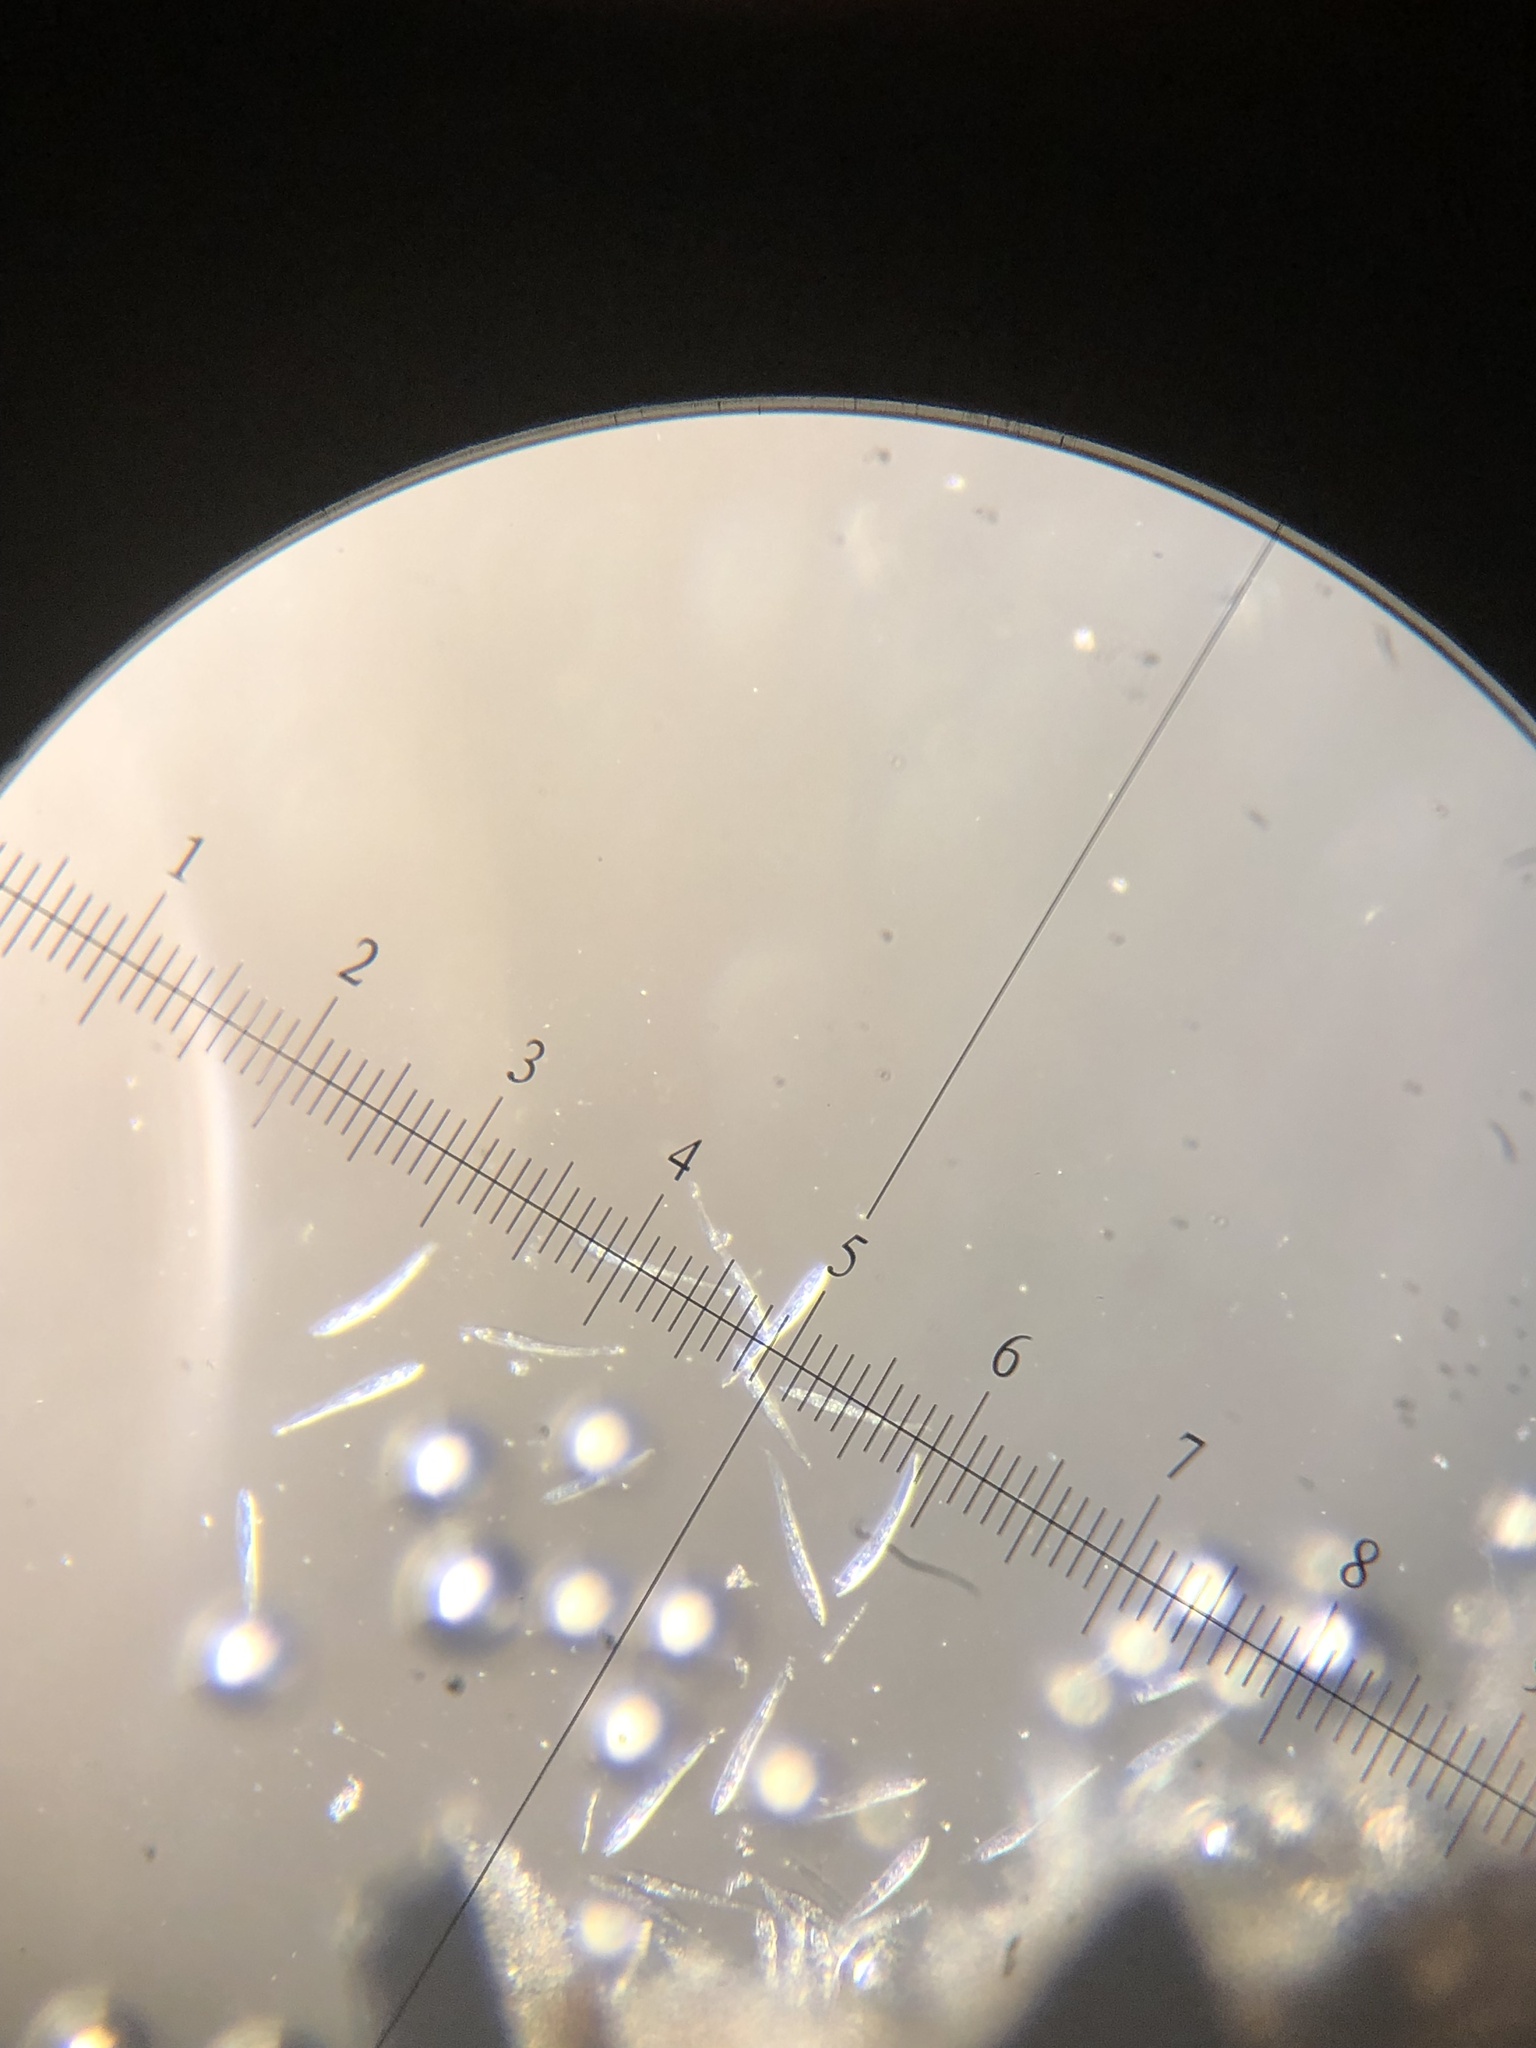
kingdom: Fungi
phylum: Ascomycota
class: Leotiomycetes
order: Rhytismatales
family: Rhytismataceae
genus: Coccomyces
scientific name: Coccomyces dentatus
